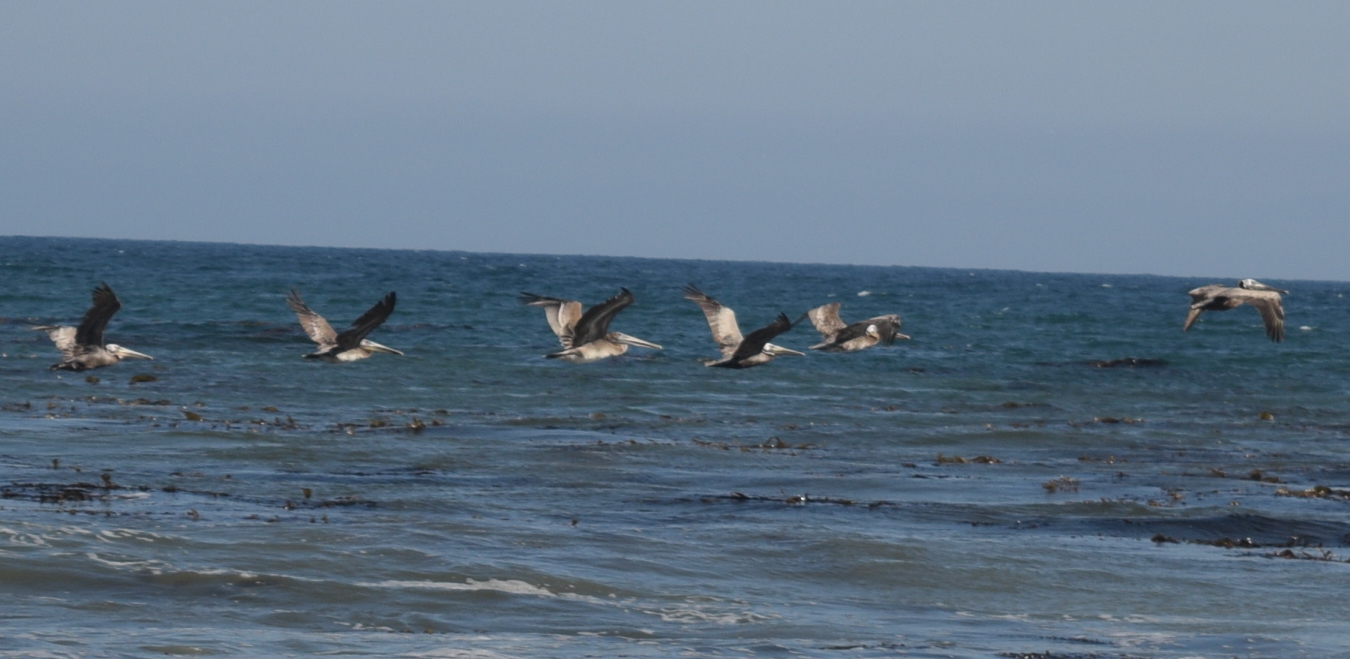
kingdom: Animalia
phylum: Chordata
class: Aves
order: Pelecaniformes
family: Pelecanidae
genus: Pelecanus
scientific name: Pelecanus occidentalis
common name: Brown pelican
